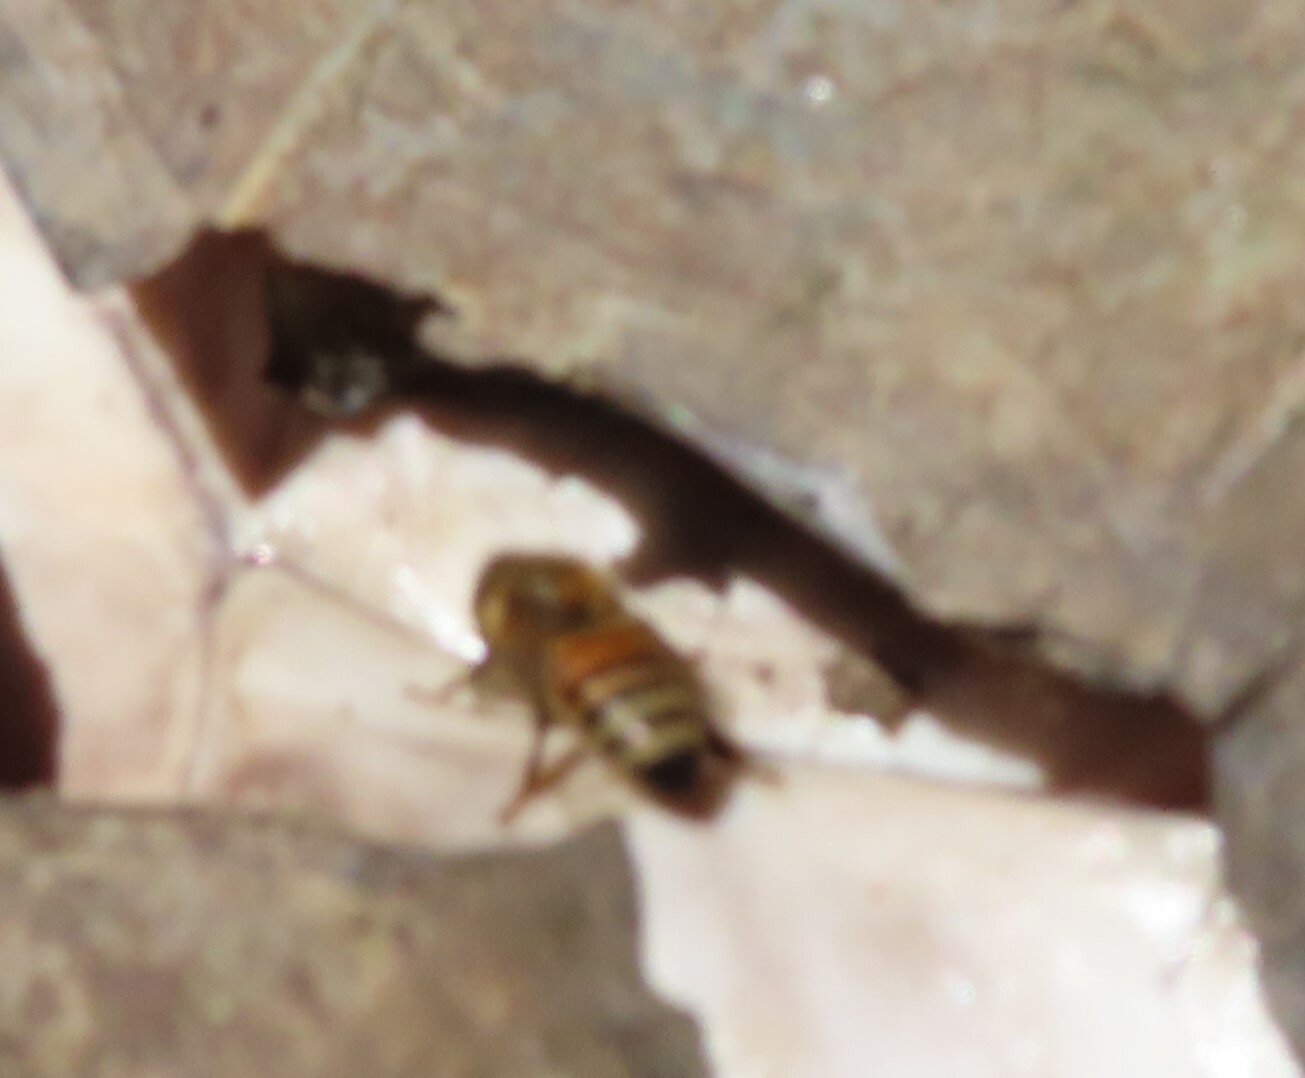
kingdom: Animalia
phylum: Arthropoda
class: Insecta
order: Hymenoptera
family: Apidae
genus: Apis
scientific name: Apis mellifera
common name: Honey bee
